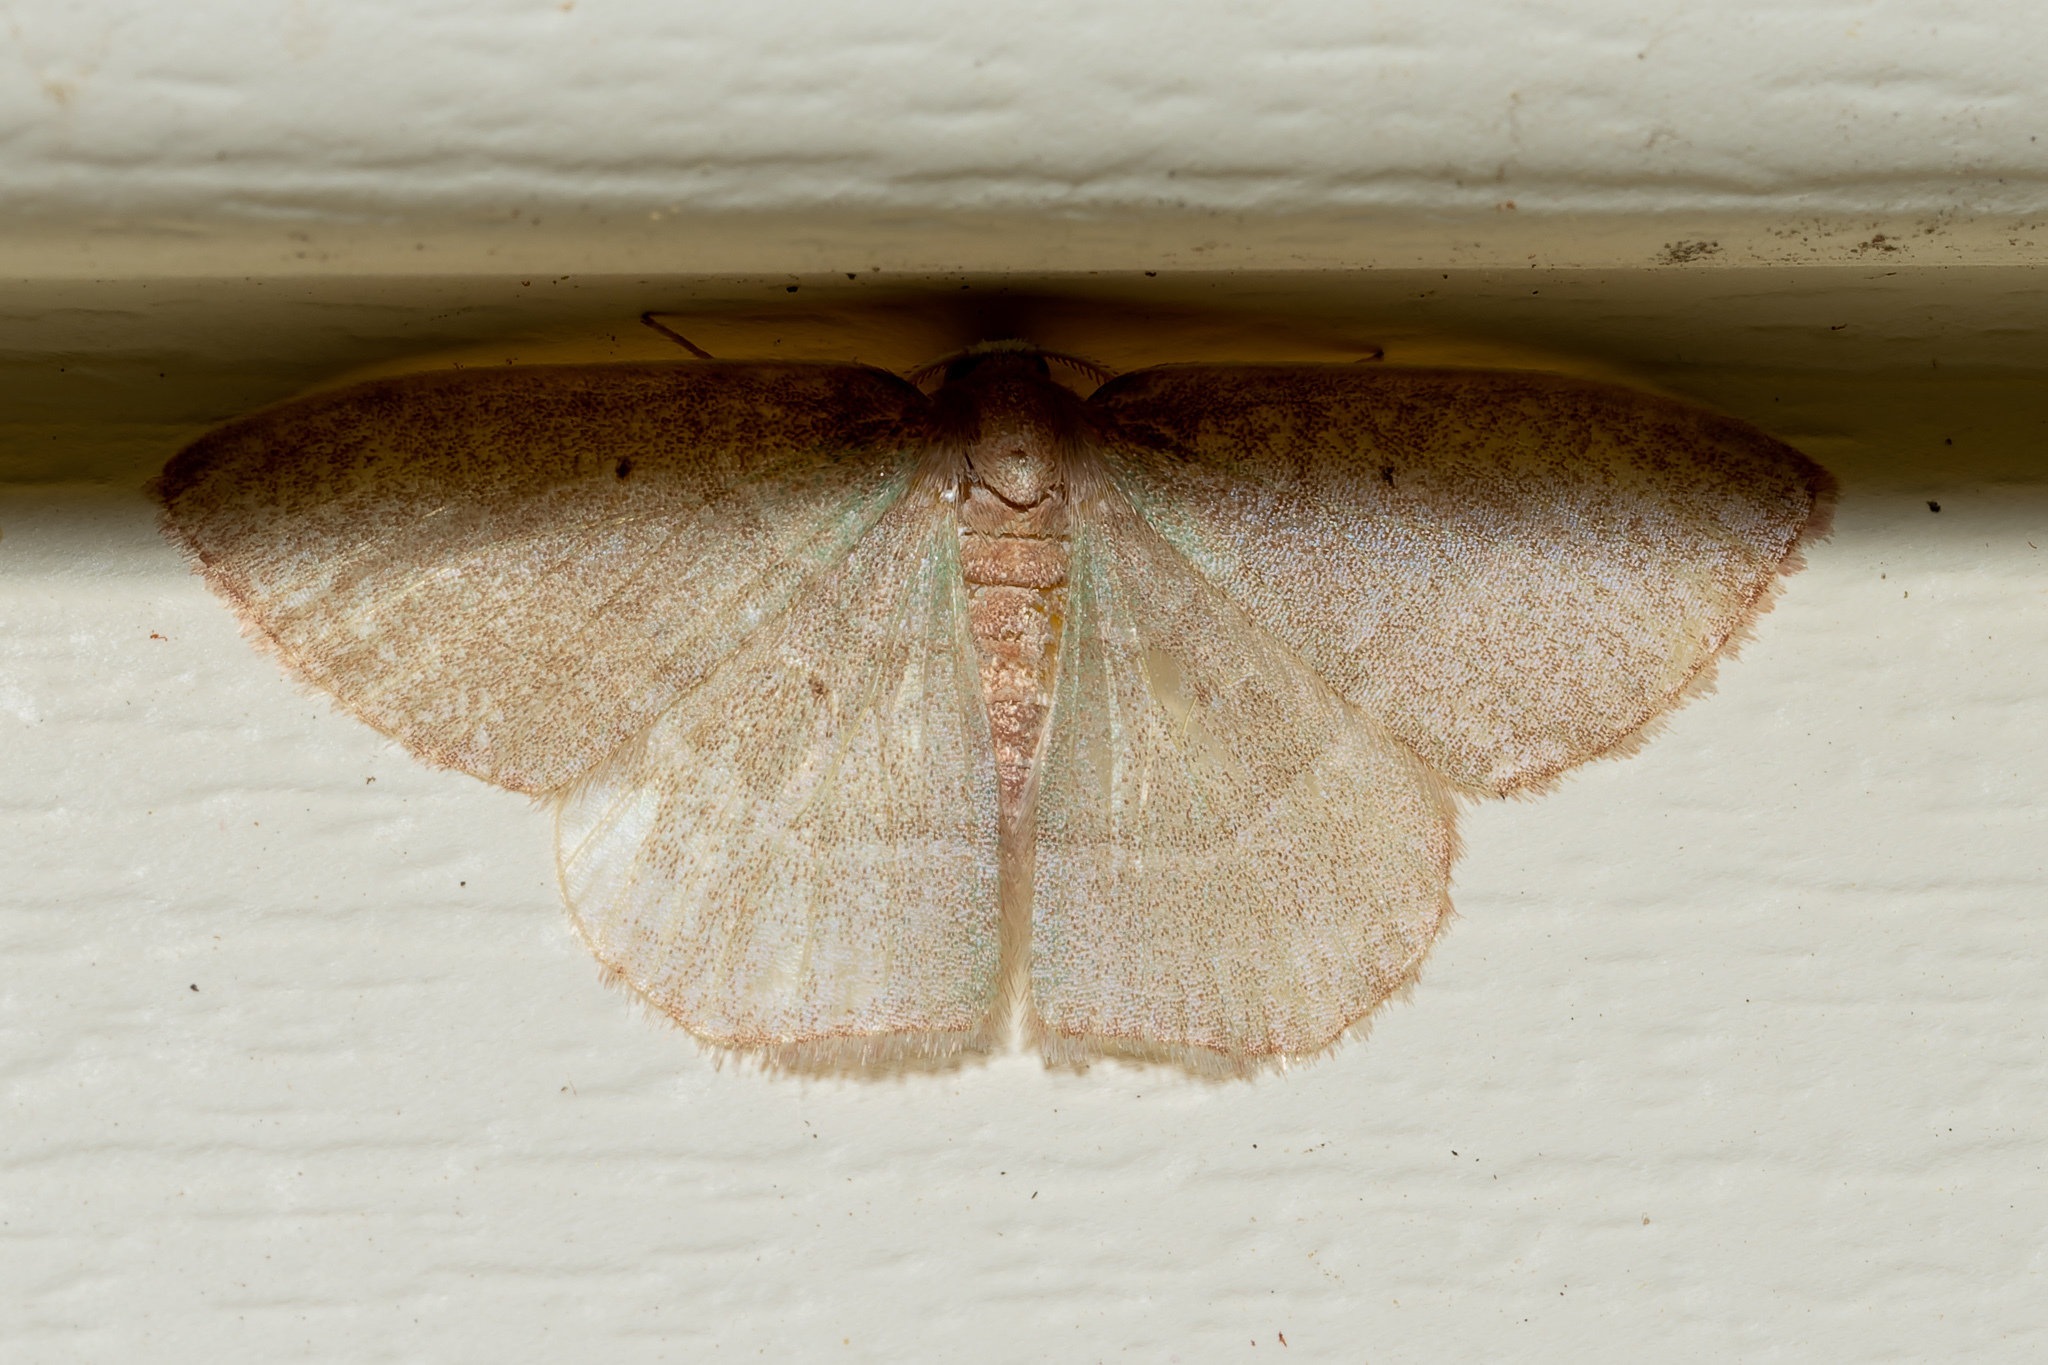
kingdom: Animalia
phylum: Arthropoda
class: Insecta
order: Lepidoptera
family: Geometridae
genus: Nemoria
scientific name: Nemoria bistriaria
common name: Red-fringed emerald
